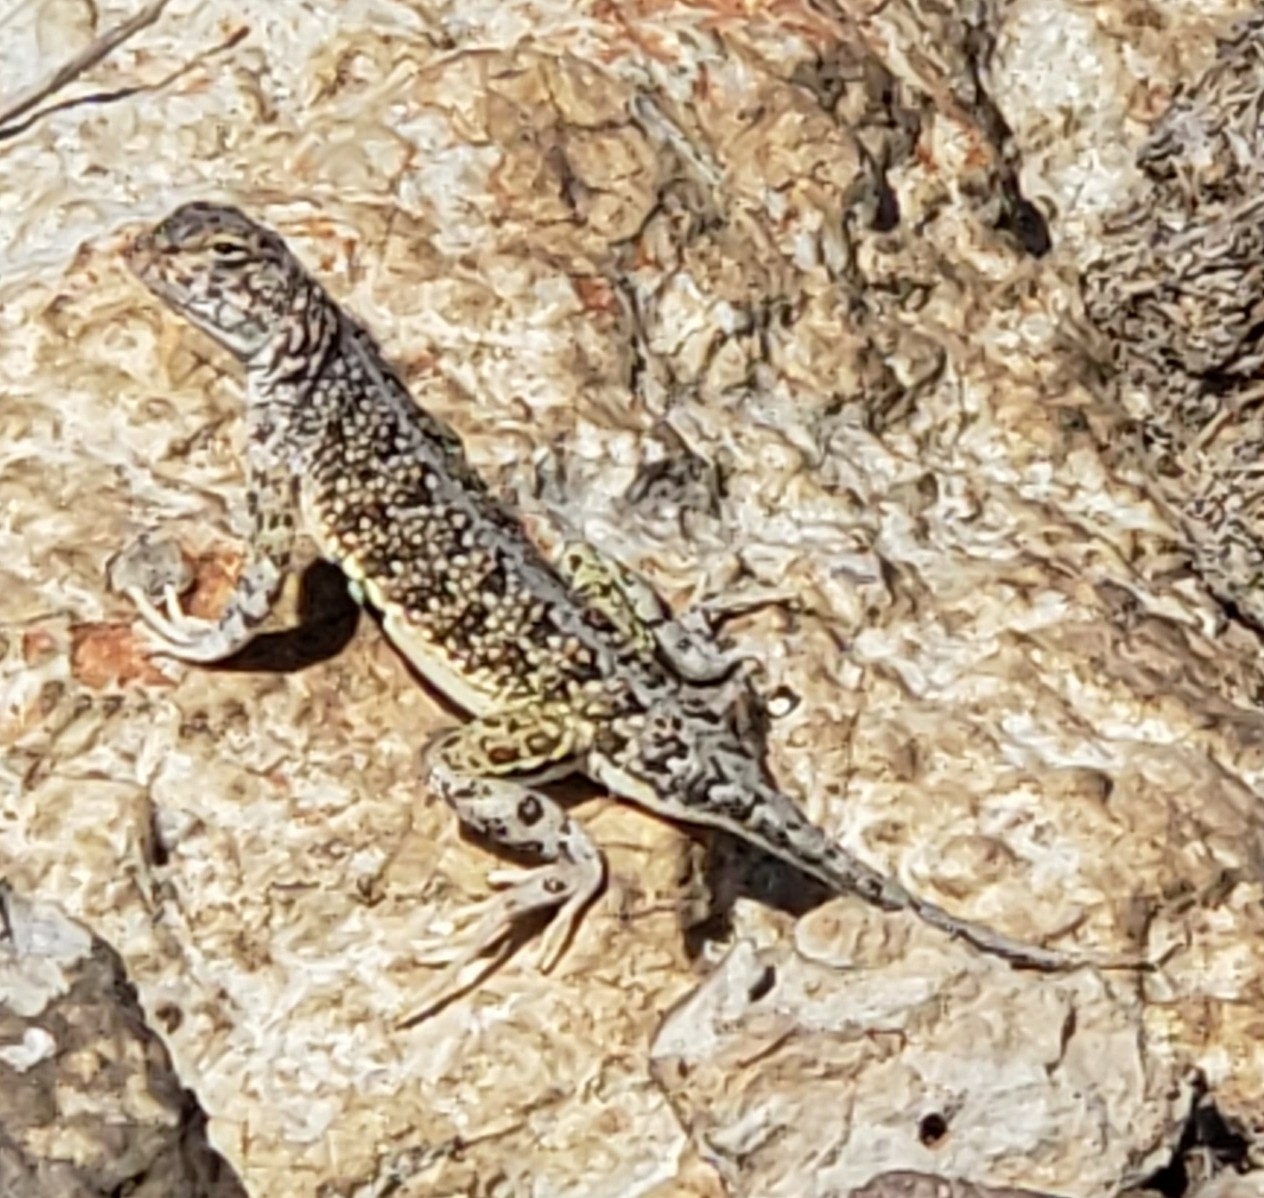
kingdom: Animalia
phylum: Chordata
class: Squamata
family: Phrynosomatidae
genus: Holbrookia
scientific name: Holbrookia maculata
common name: Lesser earless lizard
